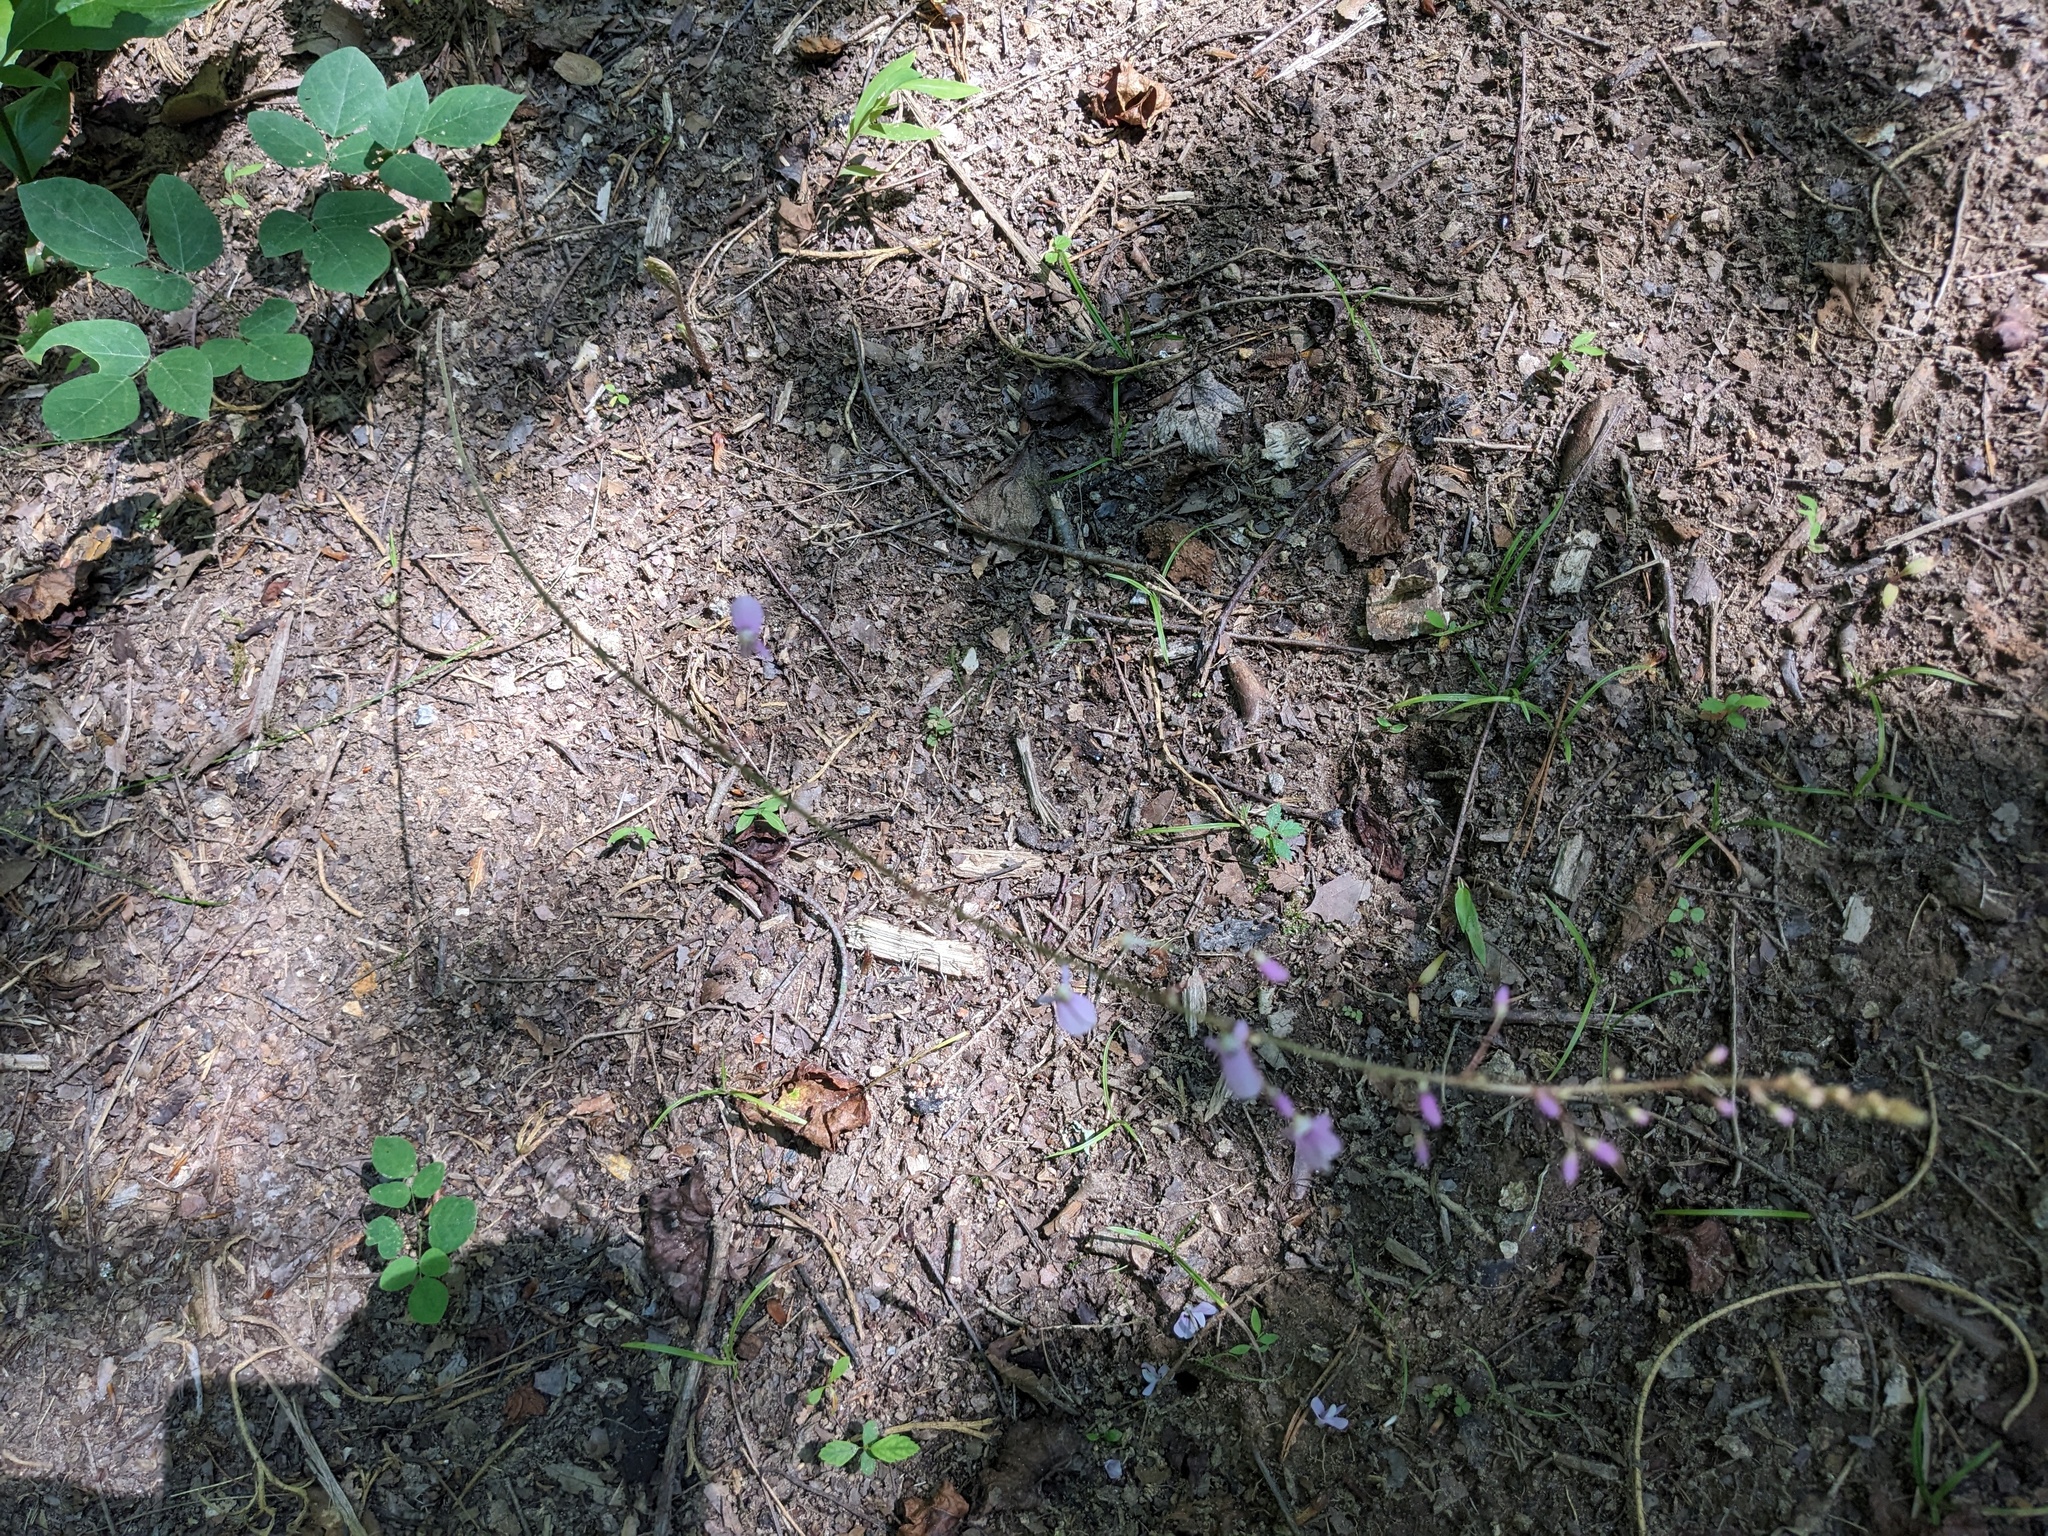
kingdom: Plantae
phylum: Tracheophyta
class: Magnoliopsida
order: Fabales
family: Fabaceae
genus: Hylodesmum
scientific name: Hylodesmum nudiflorum
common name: Bare-stemmed tick-trefoil
